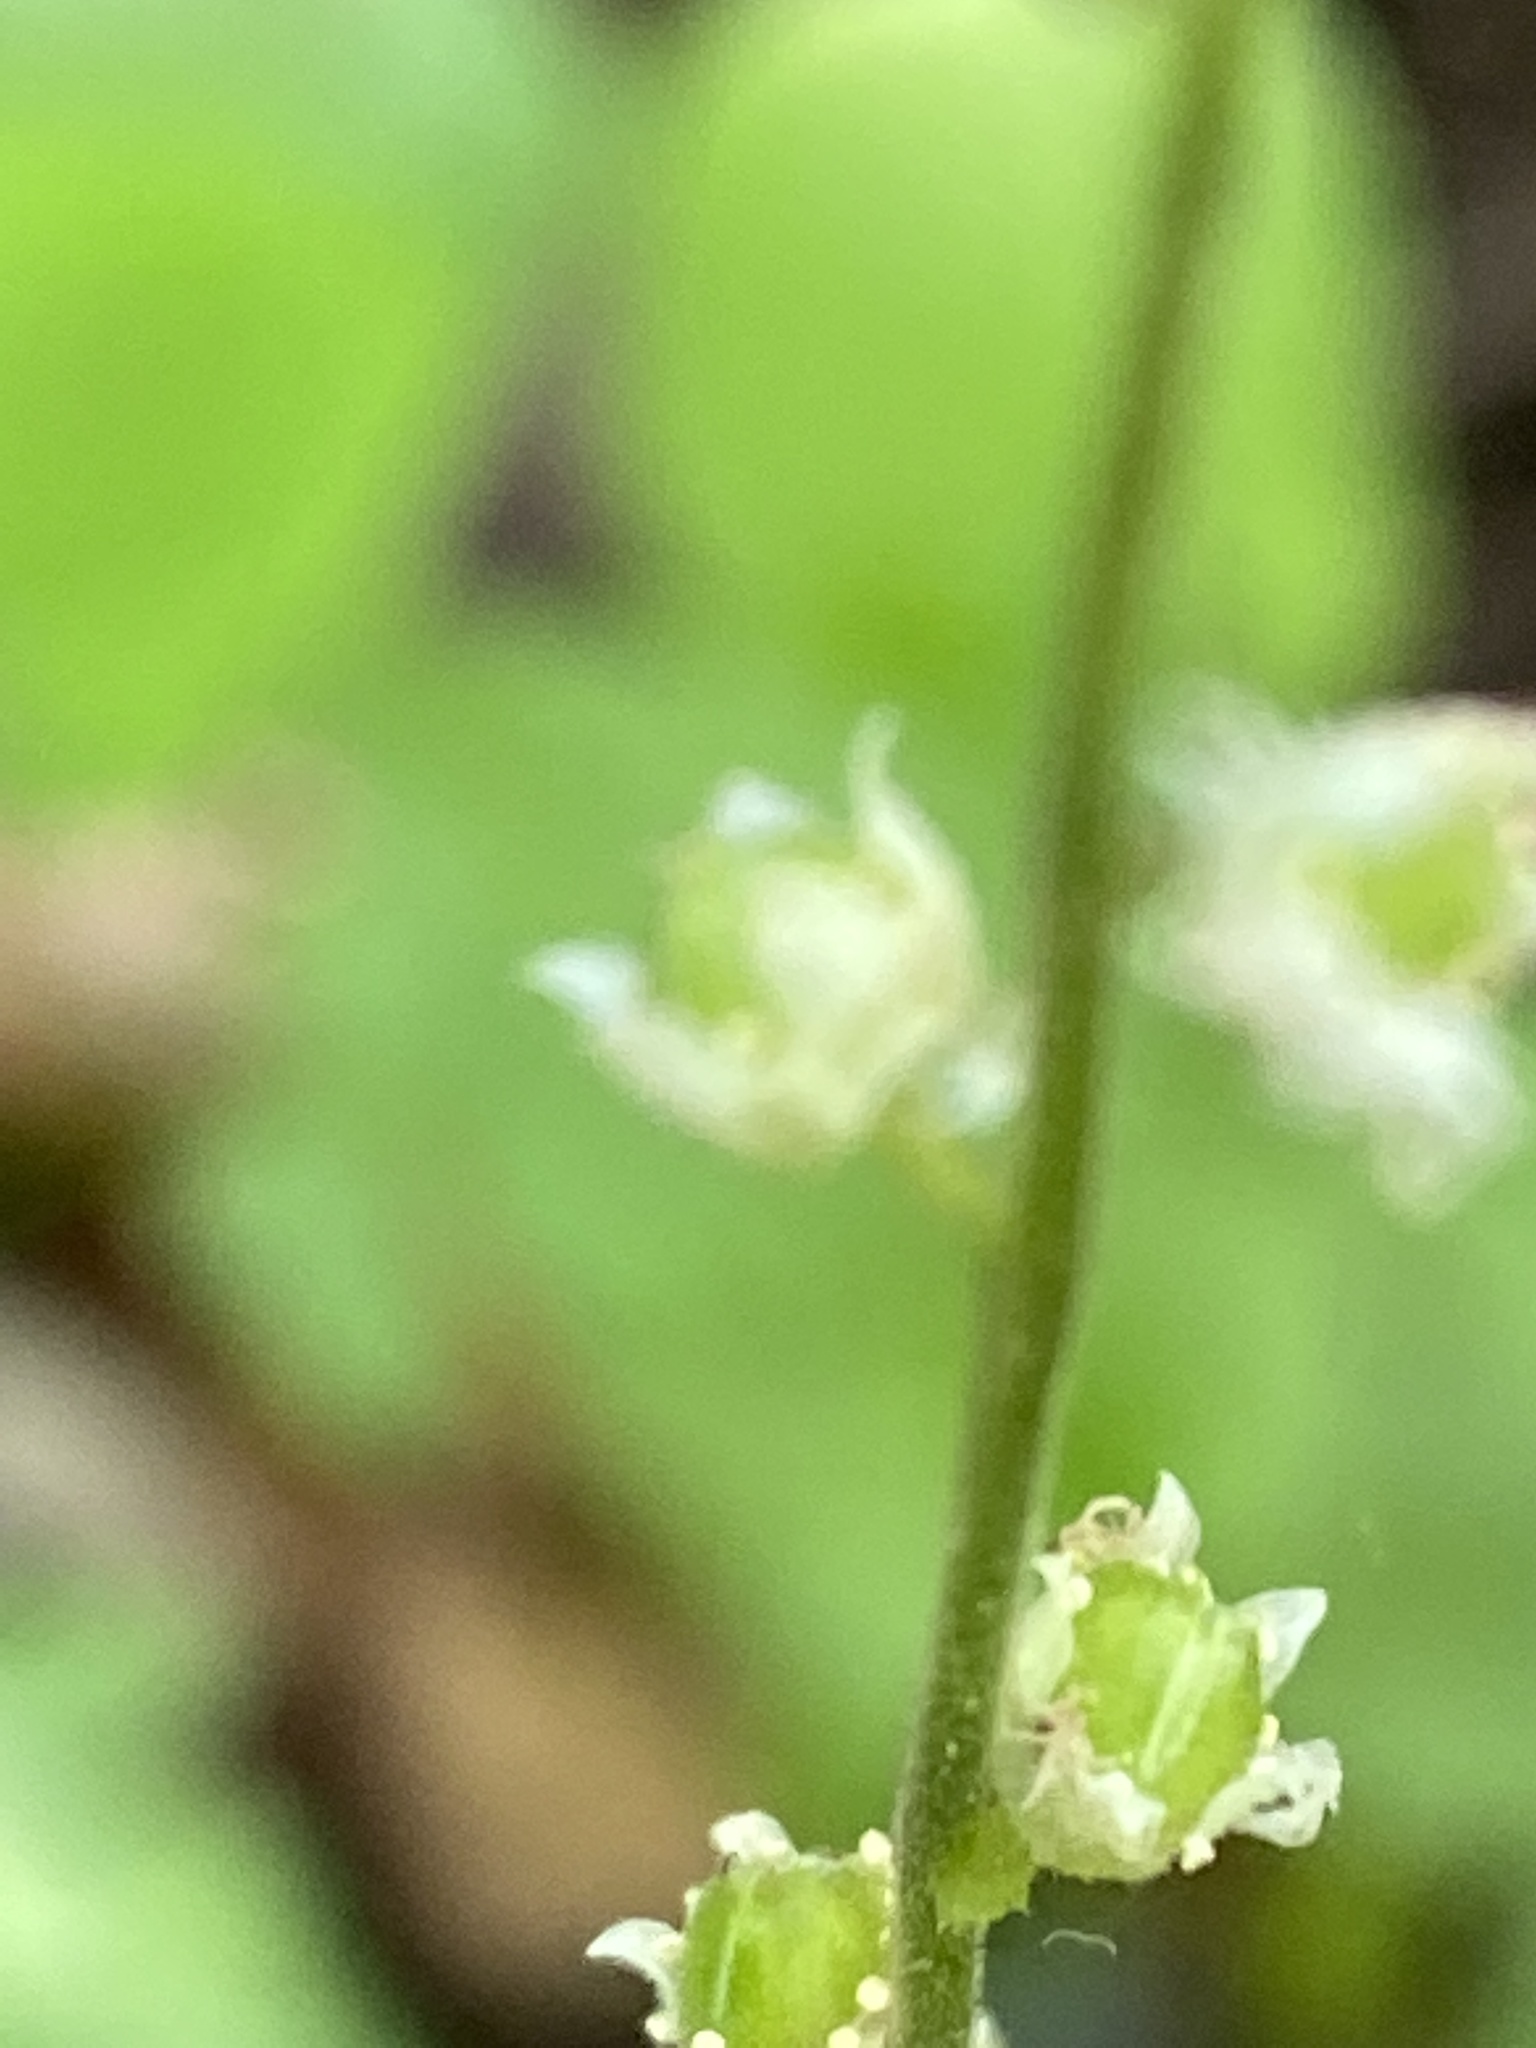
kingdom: Plantae
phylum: Tracheophyta
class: Magnoliopsida
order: Saxifragales
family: Saxifragaceae
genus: Mitella
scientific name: Mitella diphylla
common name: Coolwort
